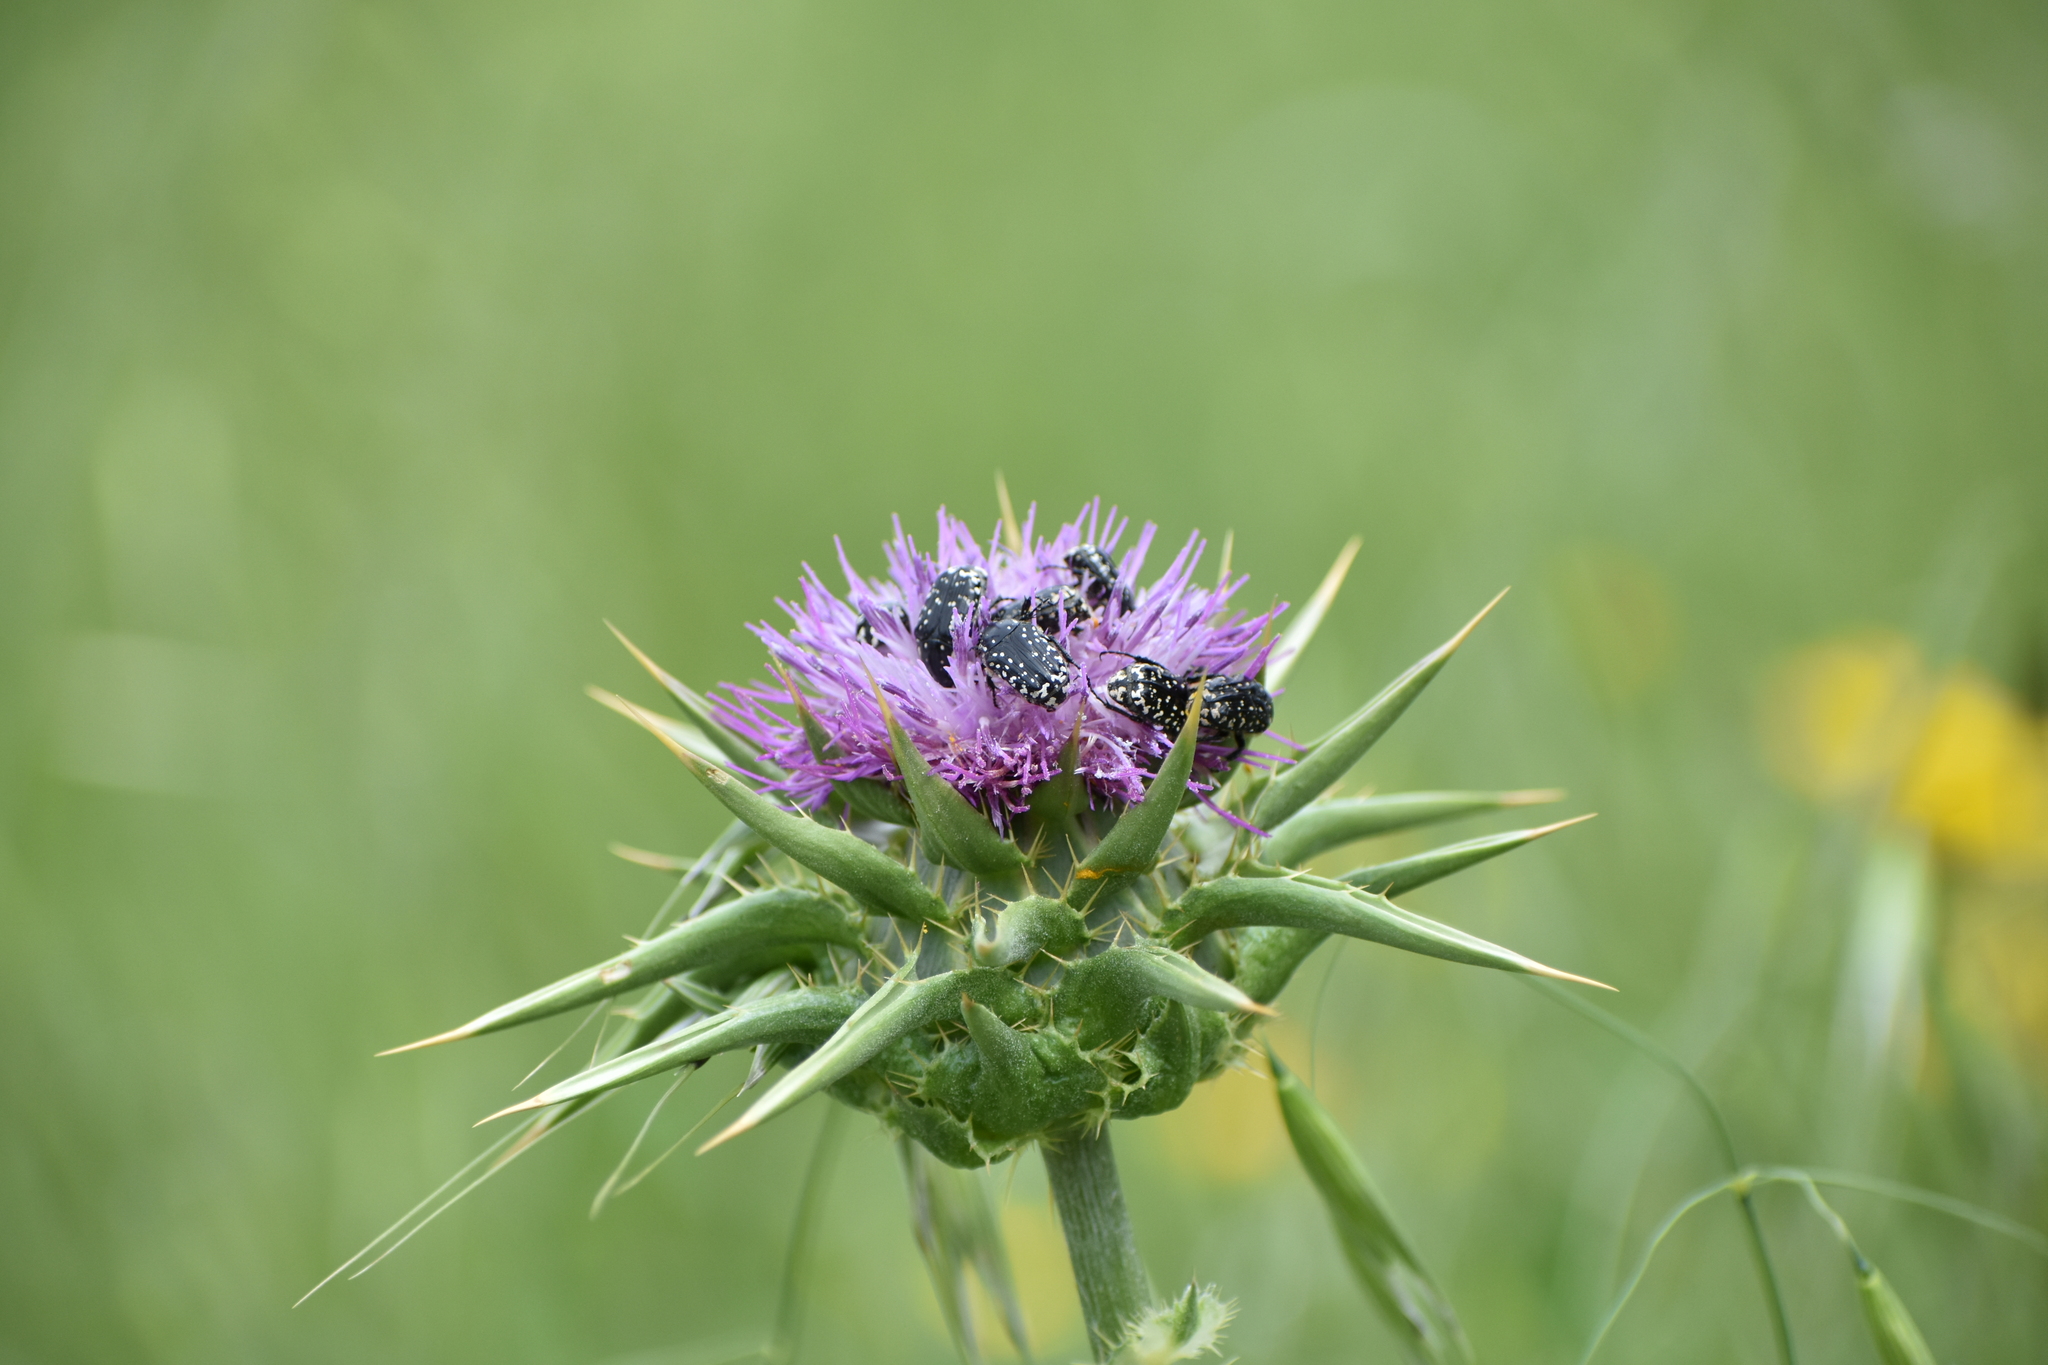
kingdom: Plantae
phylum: Tracheophyta
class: Magnoliopsida
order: Asterales
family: Asteraceae
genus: Silybum
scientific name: Silybum marianum
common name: Milk thistle
